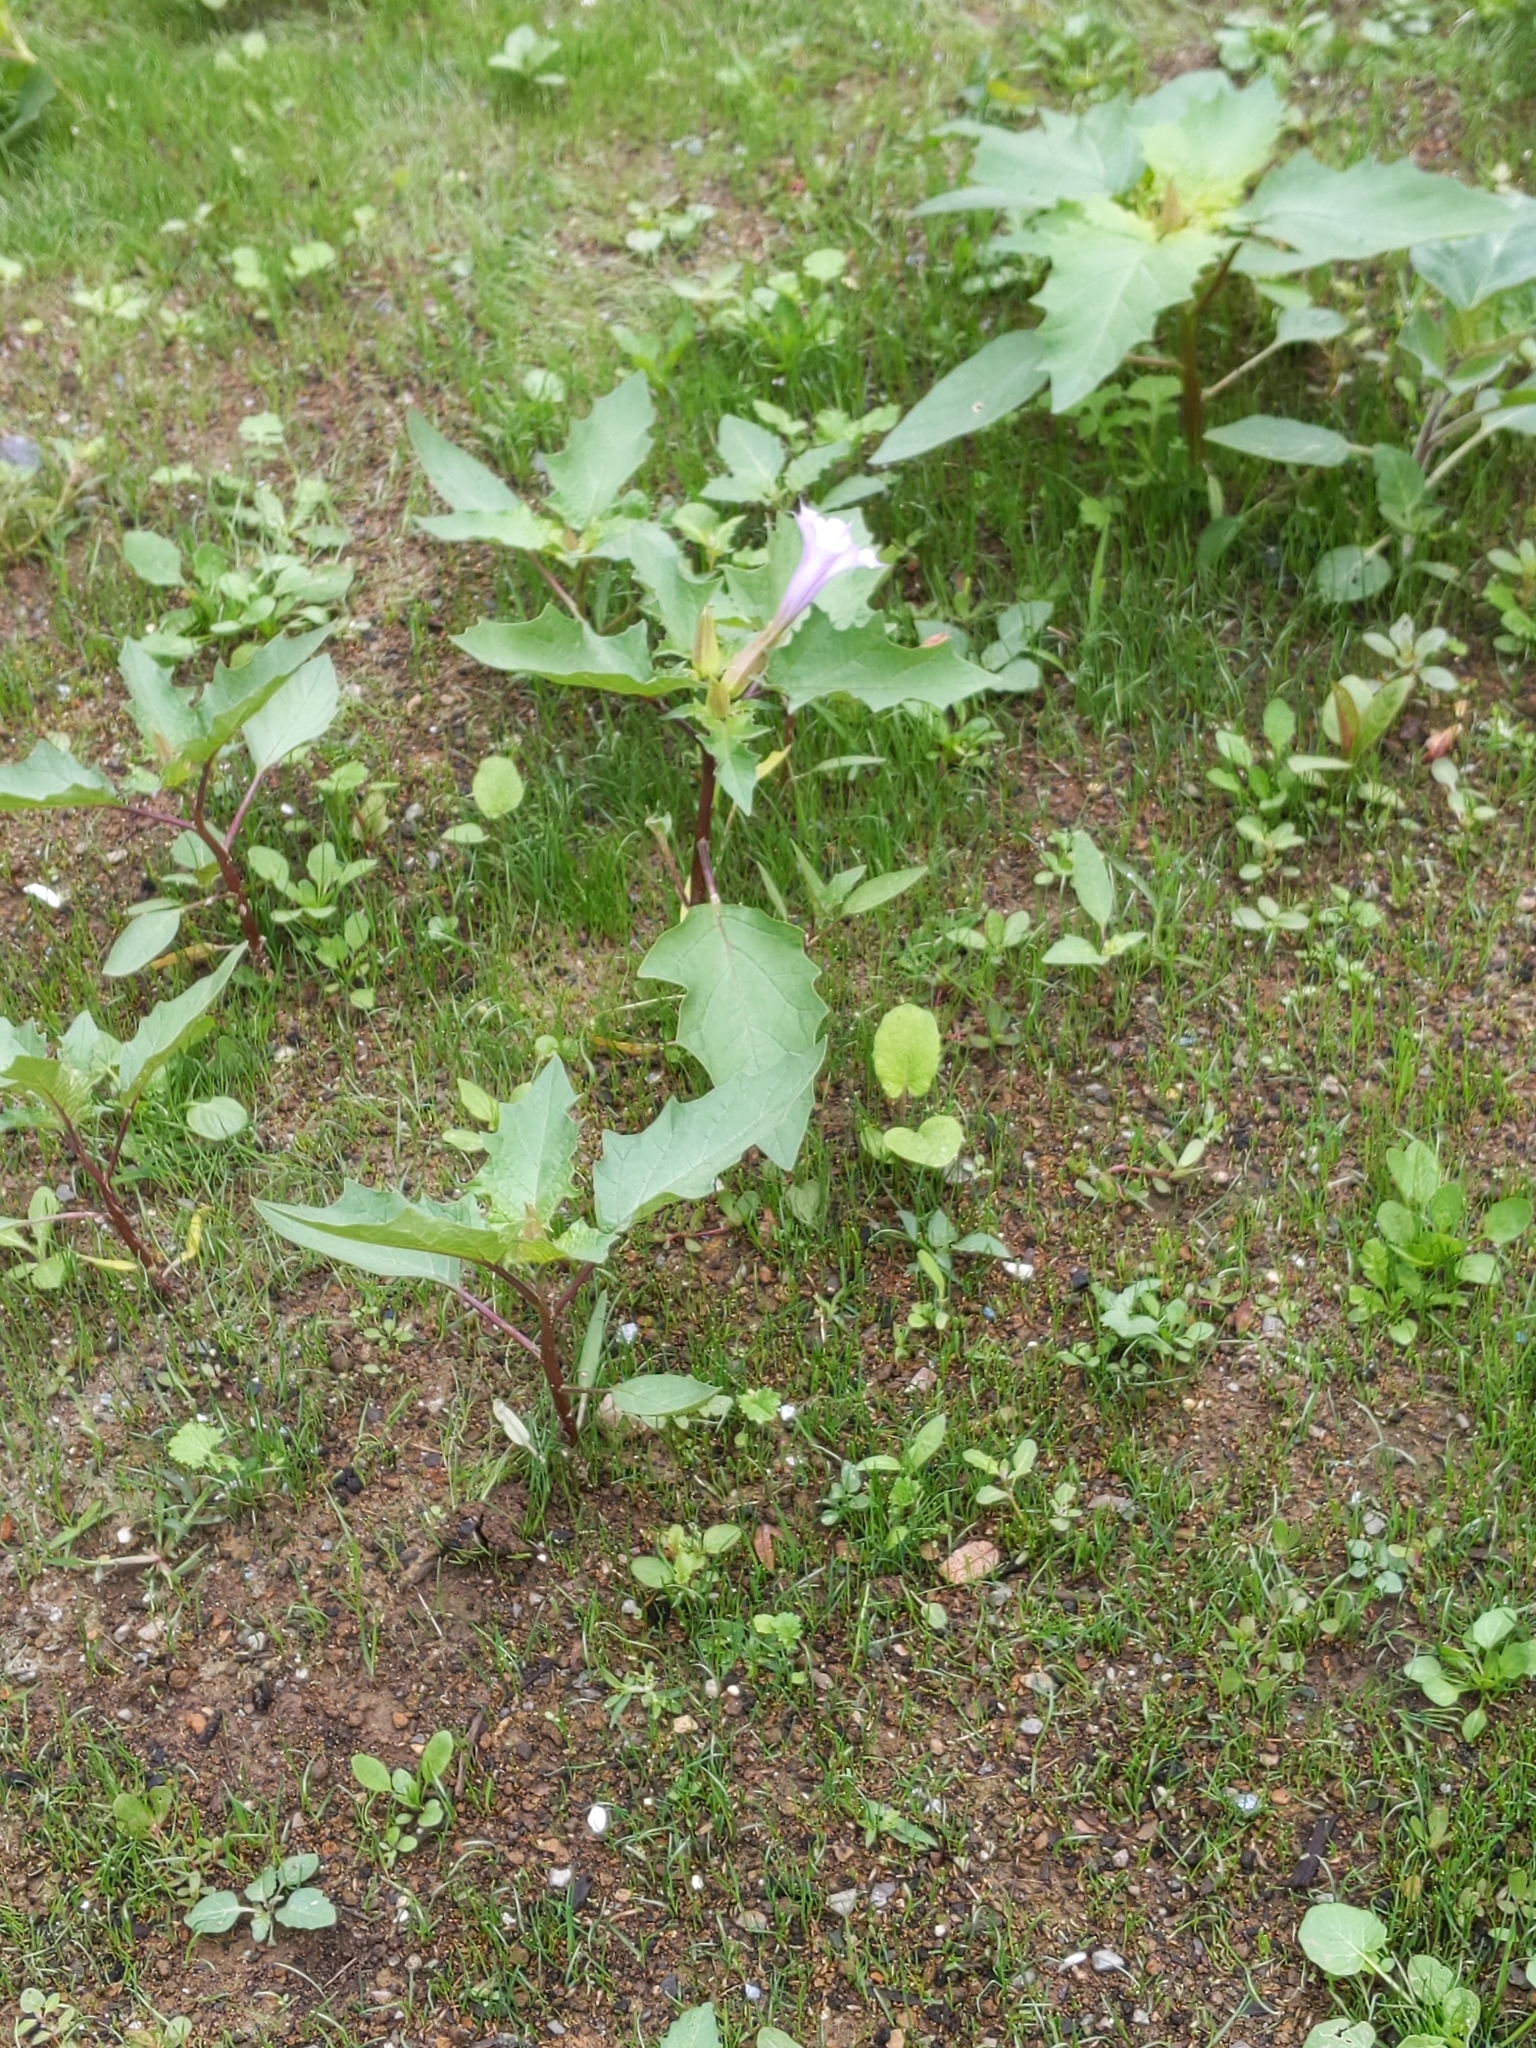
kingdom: Plantae
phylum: Tracheophyta
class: Magnoliopsida
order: Solanales
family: Solanaceae
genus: Datura
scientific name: Datura stramonium
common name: Thorn-apple
